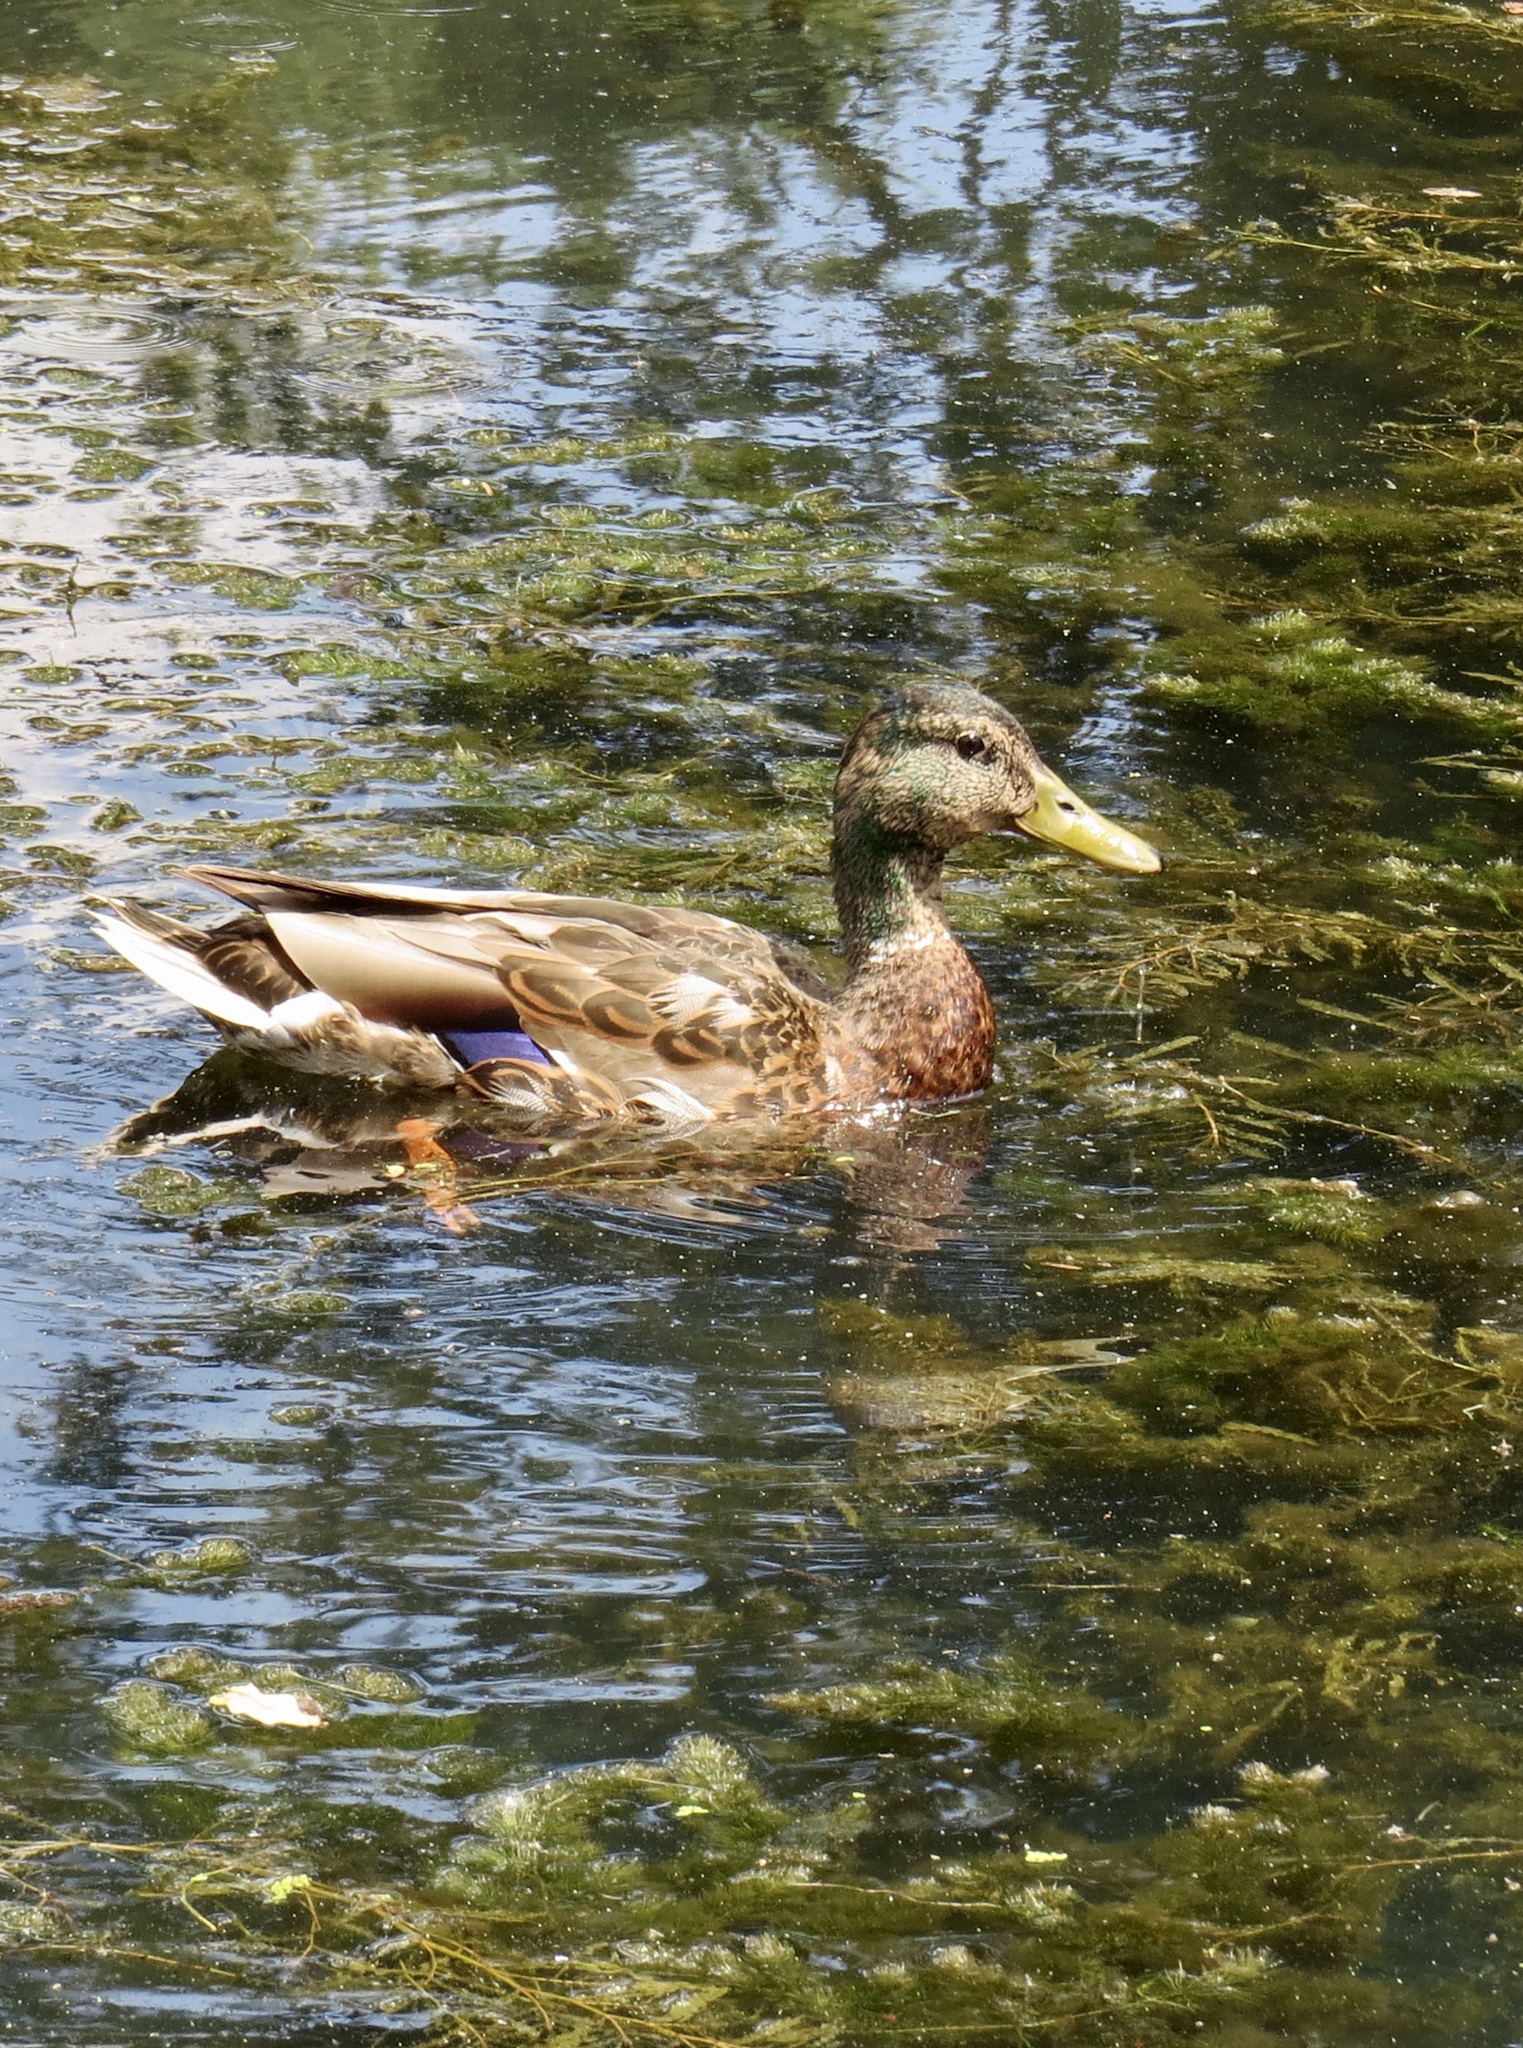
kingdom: Animalia
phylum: Chordata
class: Aves
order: Anseriformes
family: Anatidae
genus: Anas
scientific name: Anas platyrhynchos
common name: Mallard
